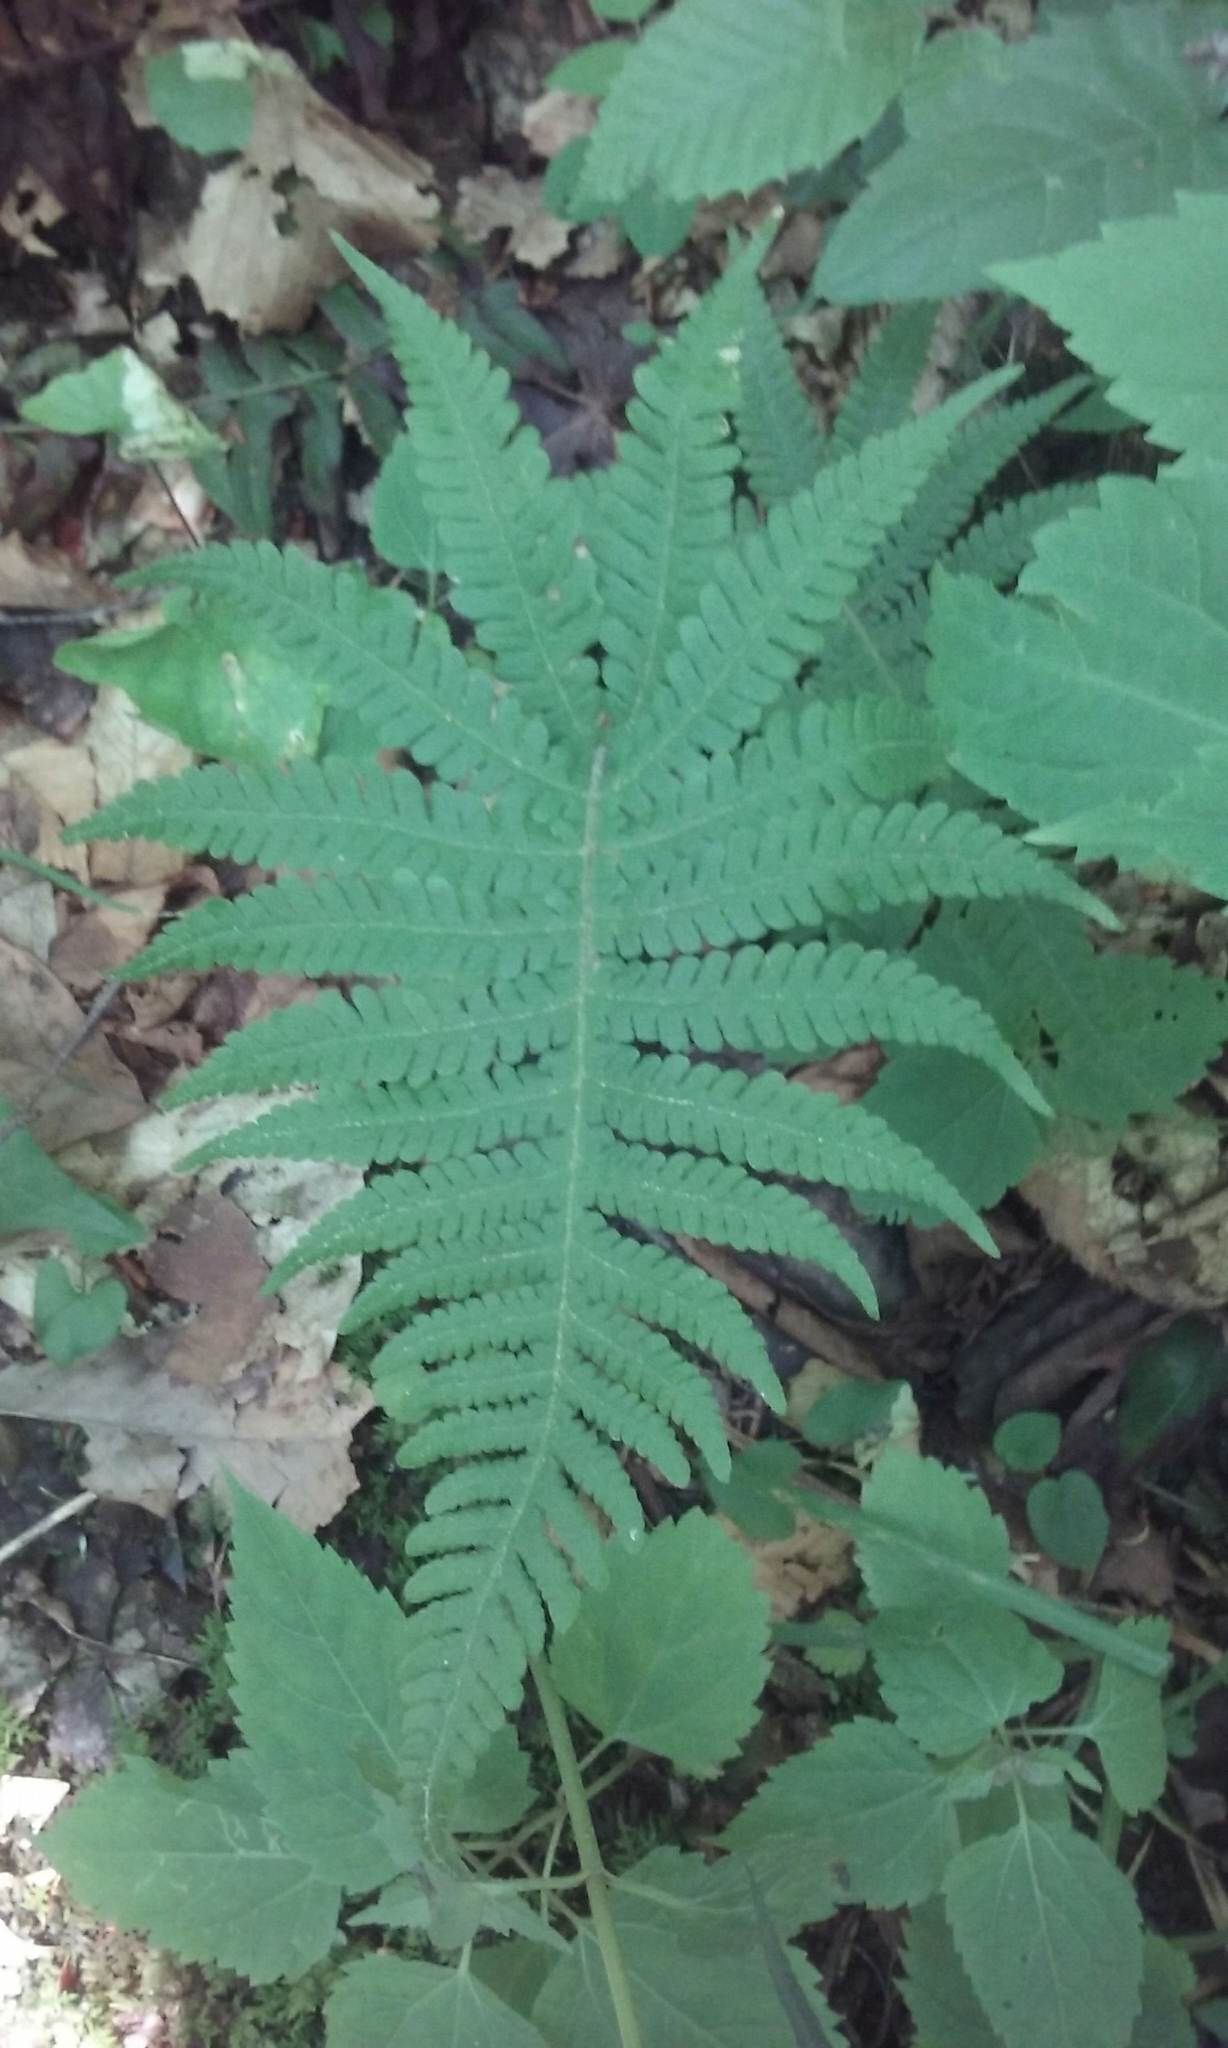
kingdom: Plantae
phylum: Tracheophyta
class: Polypodiopsida
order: Polypodiales
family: Thelypteridaceae
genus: Phegopteris
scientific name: Phegopteris connectilis
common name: Beech fern
